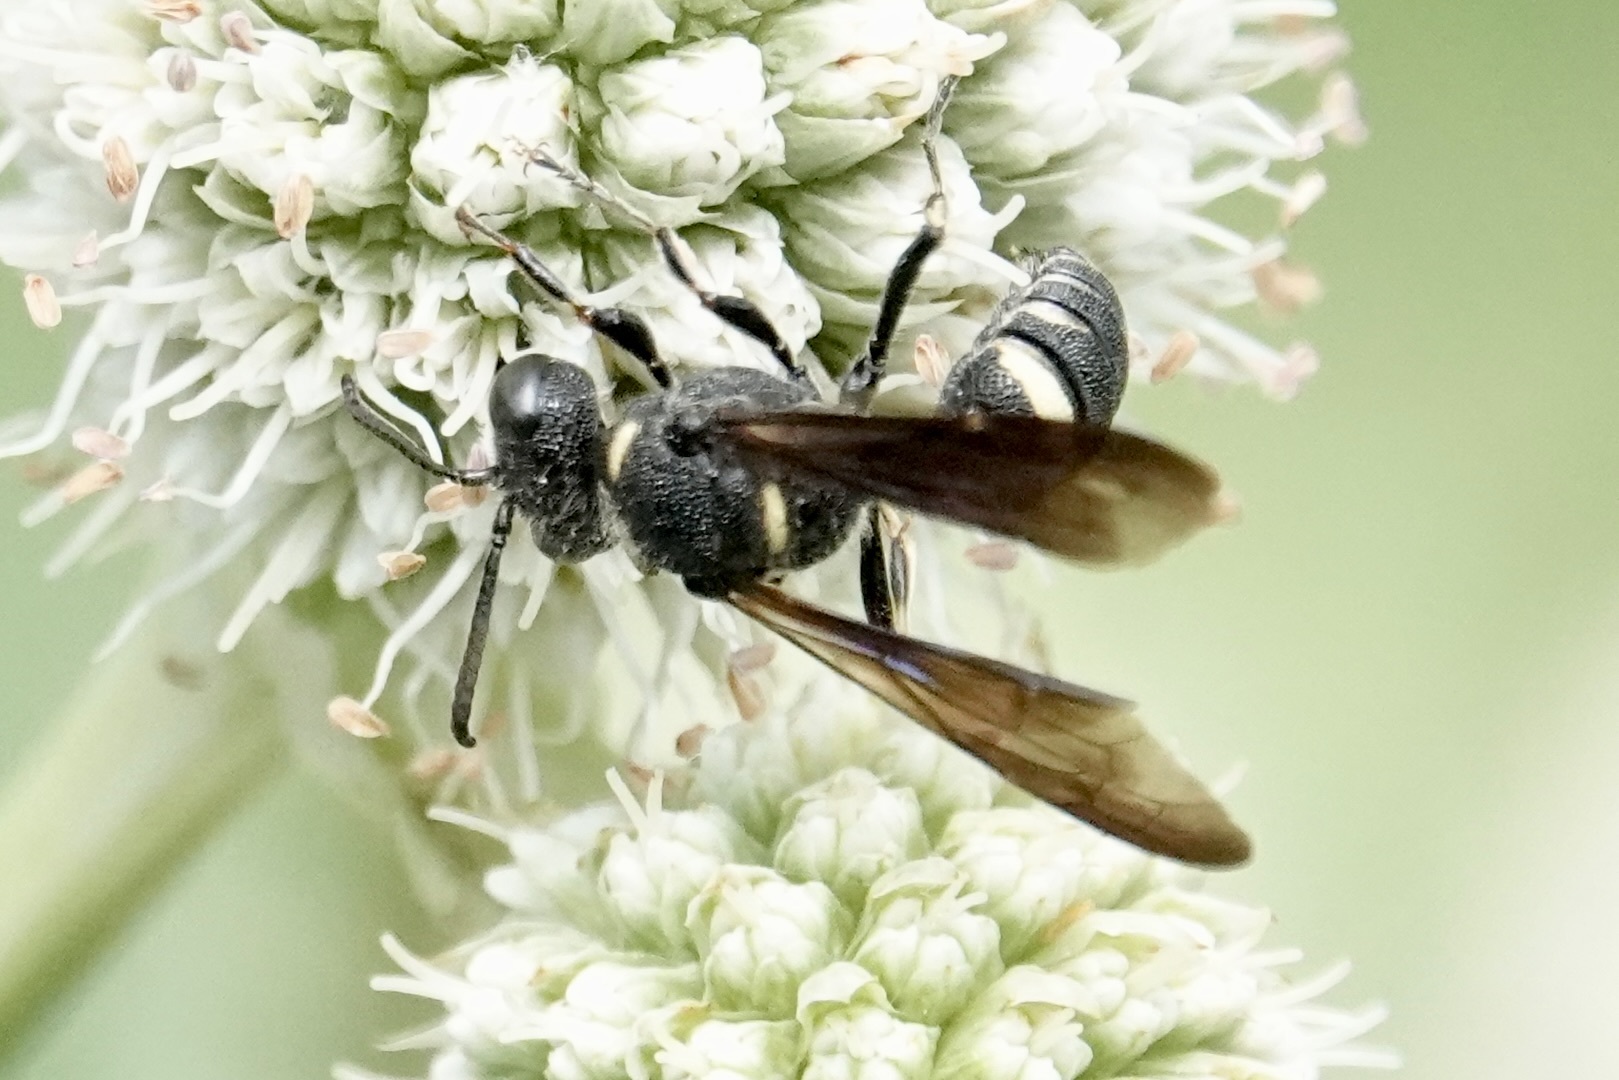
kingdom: Animalia
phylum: Arthropoda
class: Insecta
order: Hymenoptera
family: Crabronidae
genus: Cerceris
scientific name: Cerceris fumipennis
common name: Smokey-winged beetle bandit wasp
